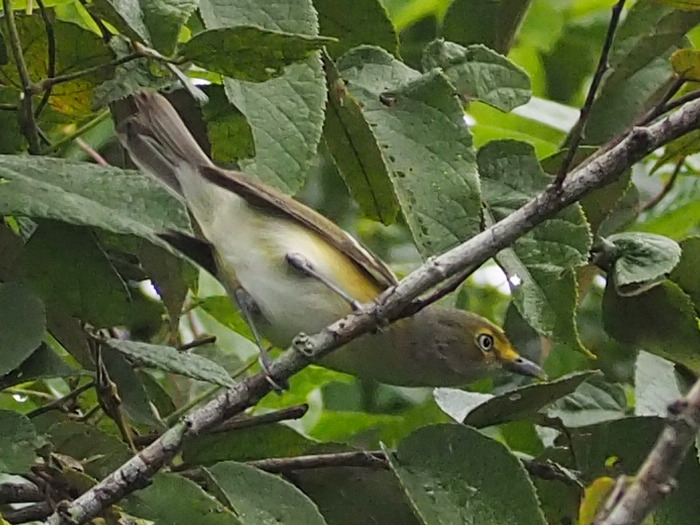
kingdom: Animalia
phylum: Chordata
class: Aves
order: Passeriformes
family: Vireonidae
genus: Vireo
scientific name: Vireo griseus
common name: White-eyed vireo
